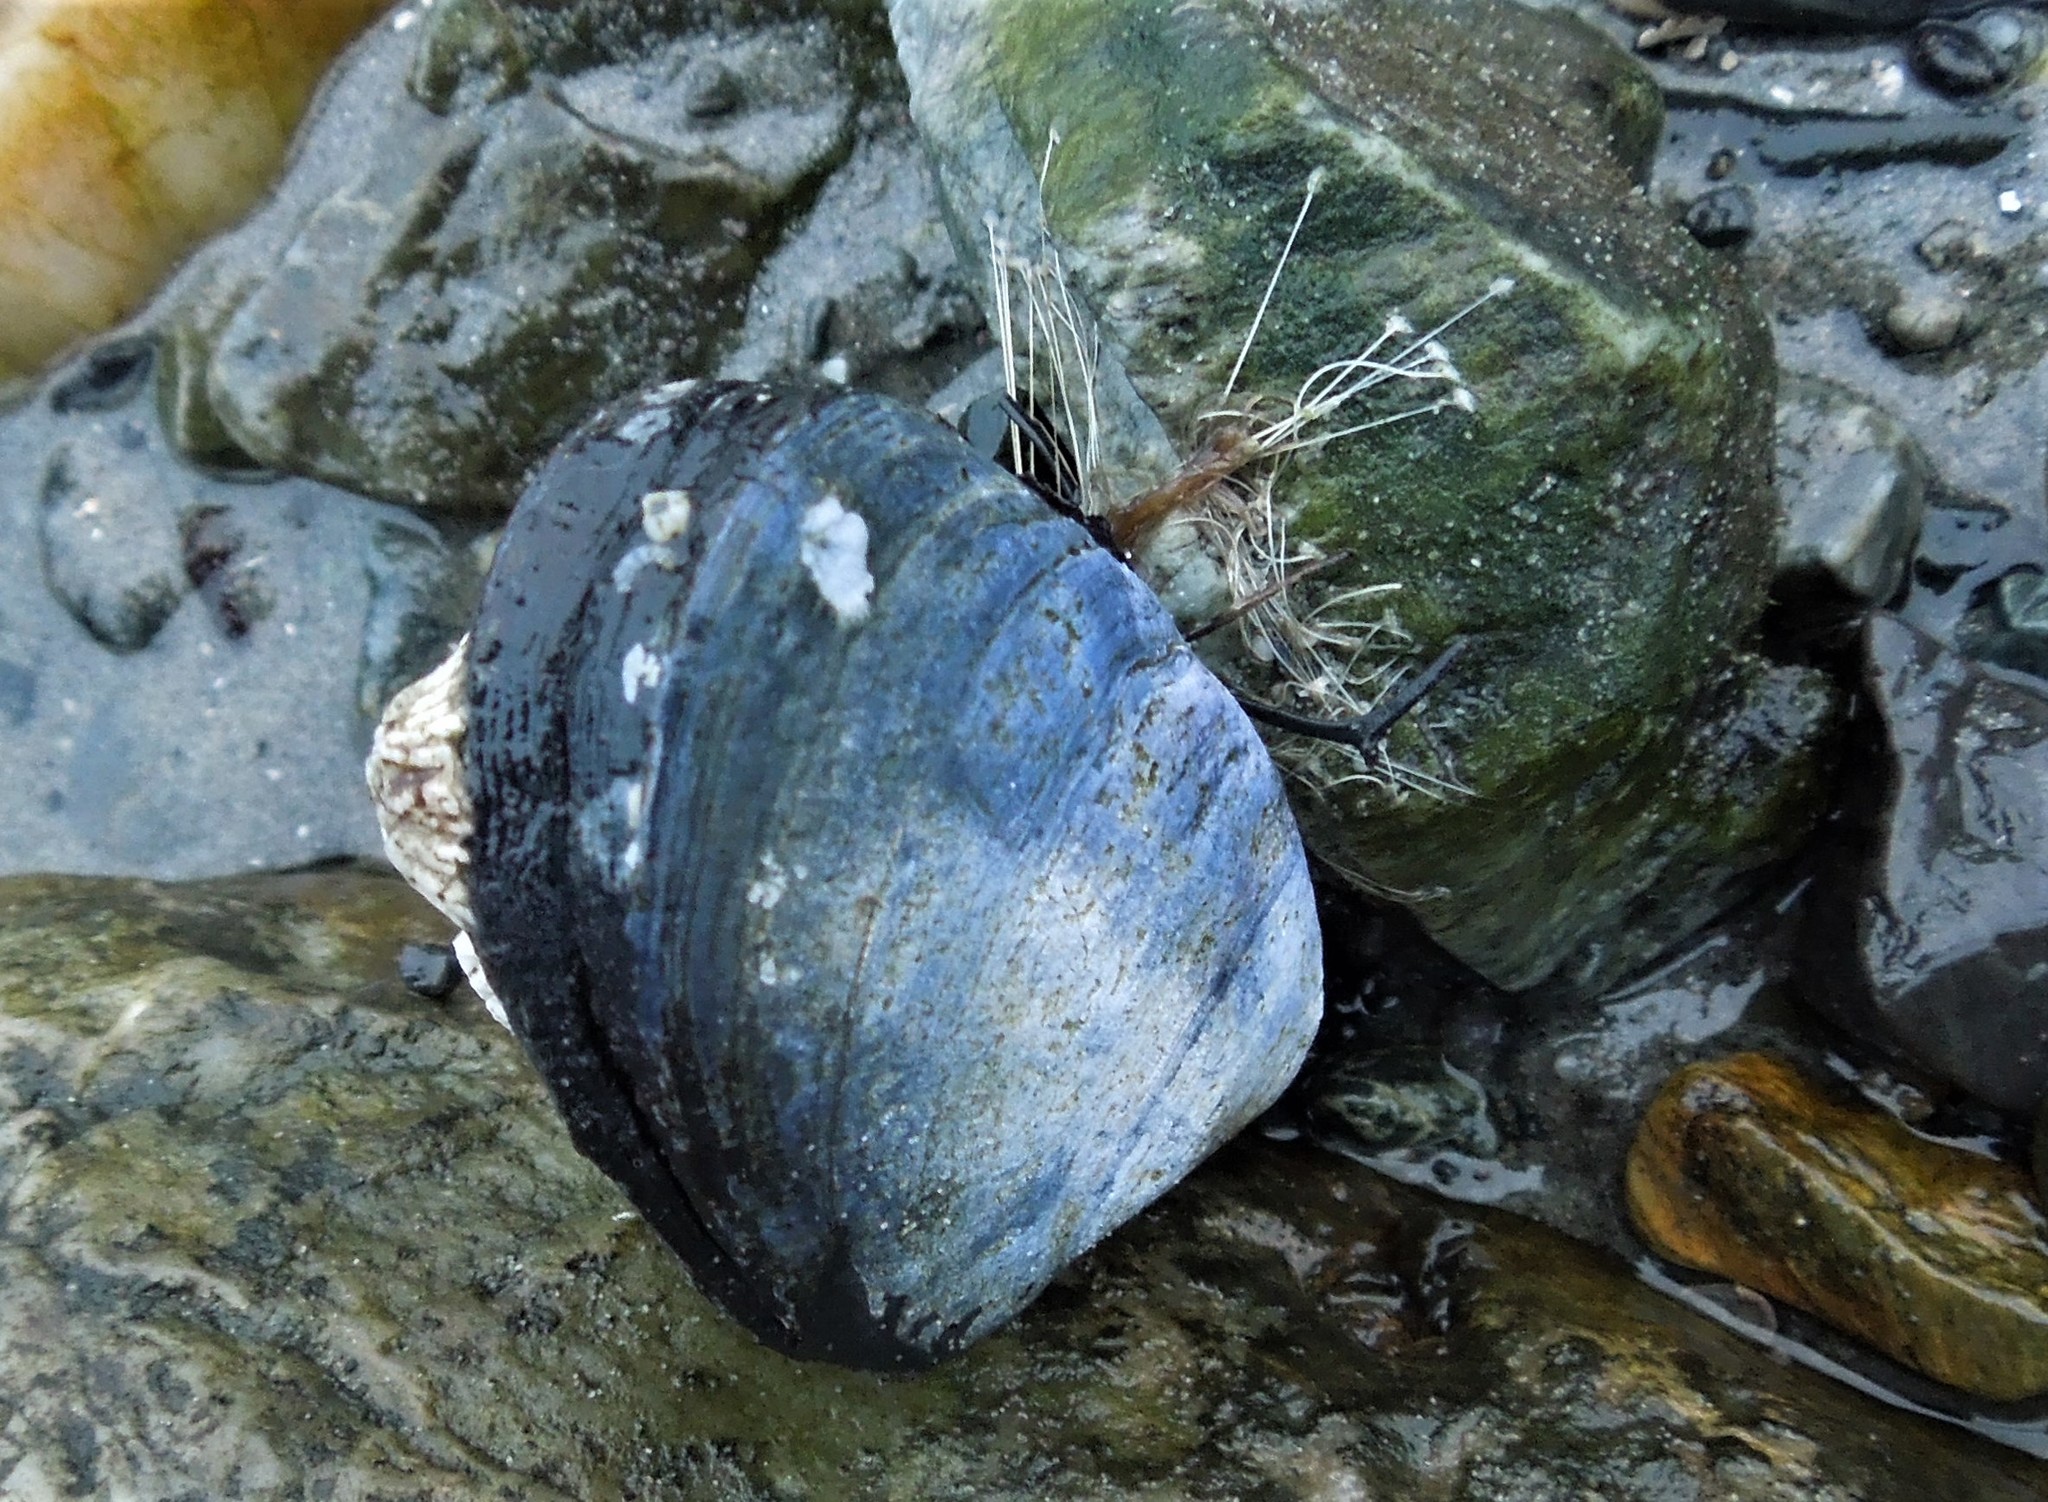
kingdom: Animalia
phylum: Mollusca
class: Bivalvia
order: Mytilida
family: Mytilidae
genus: Mytilus
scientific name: Mytilus edulis
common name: Blue mussel
